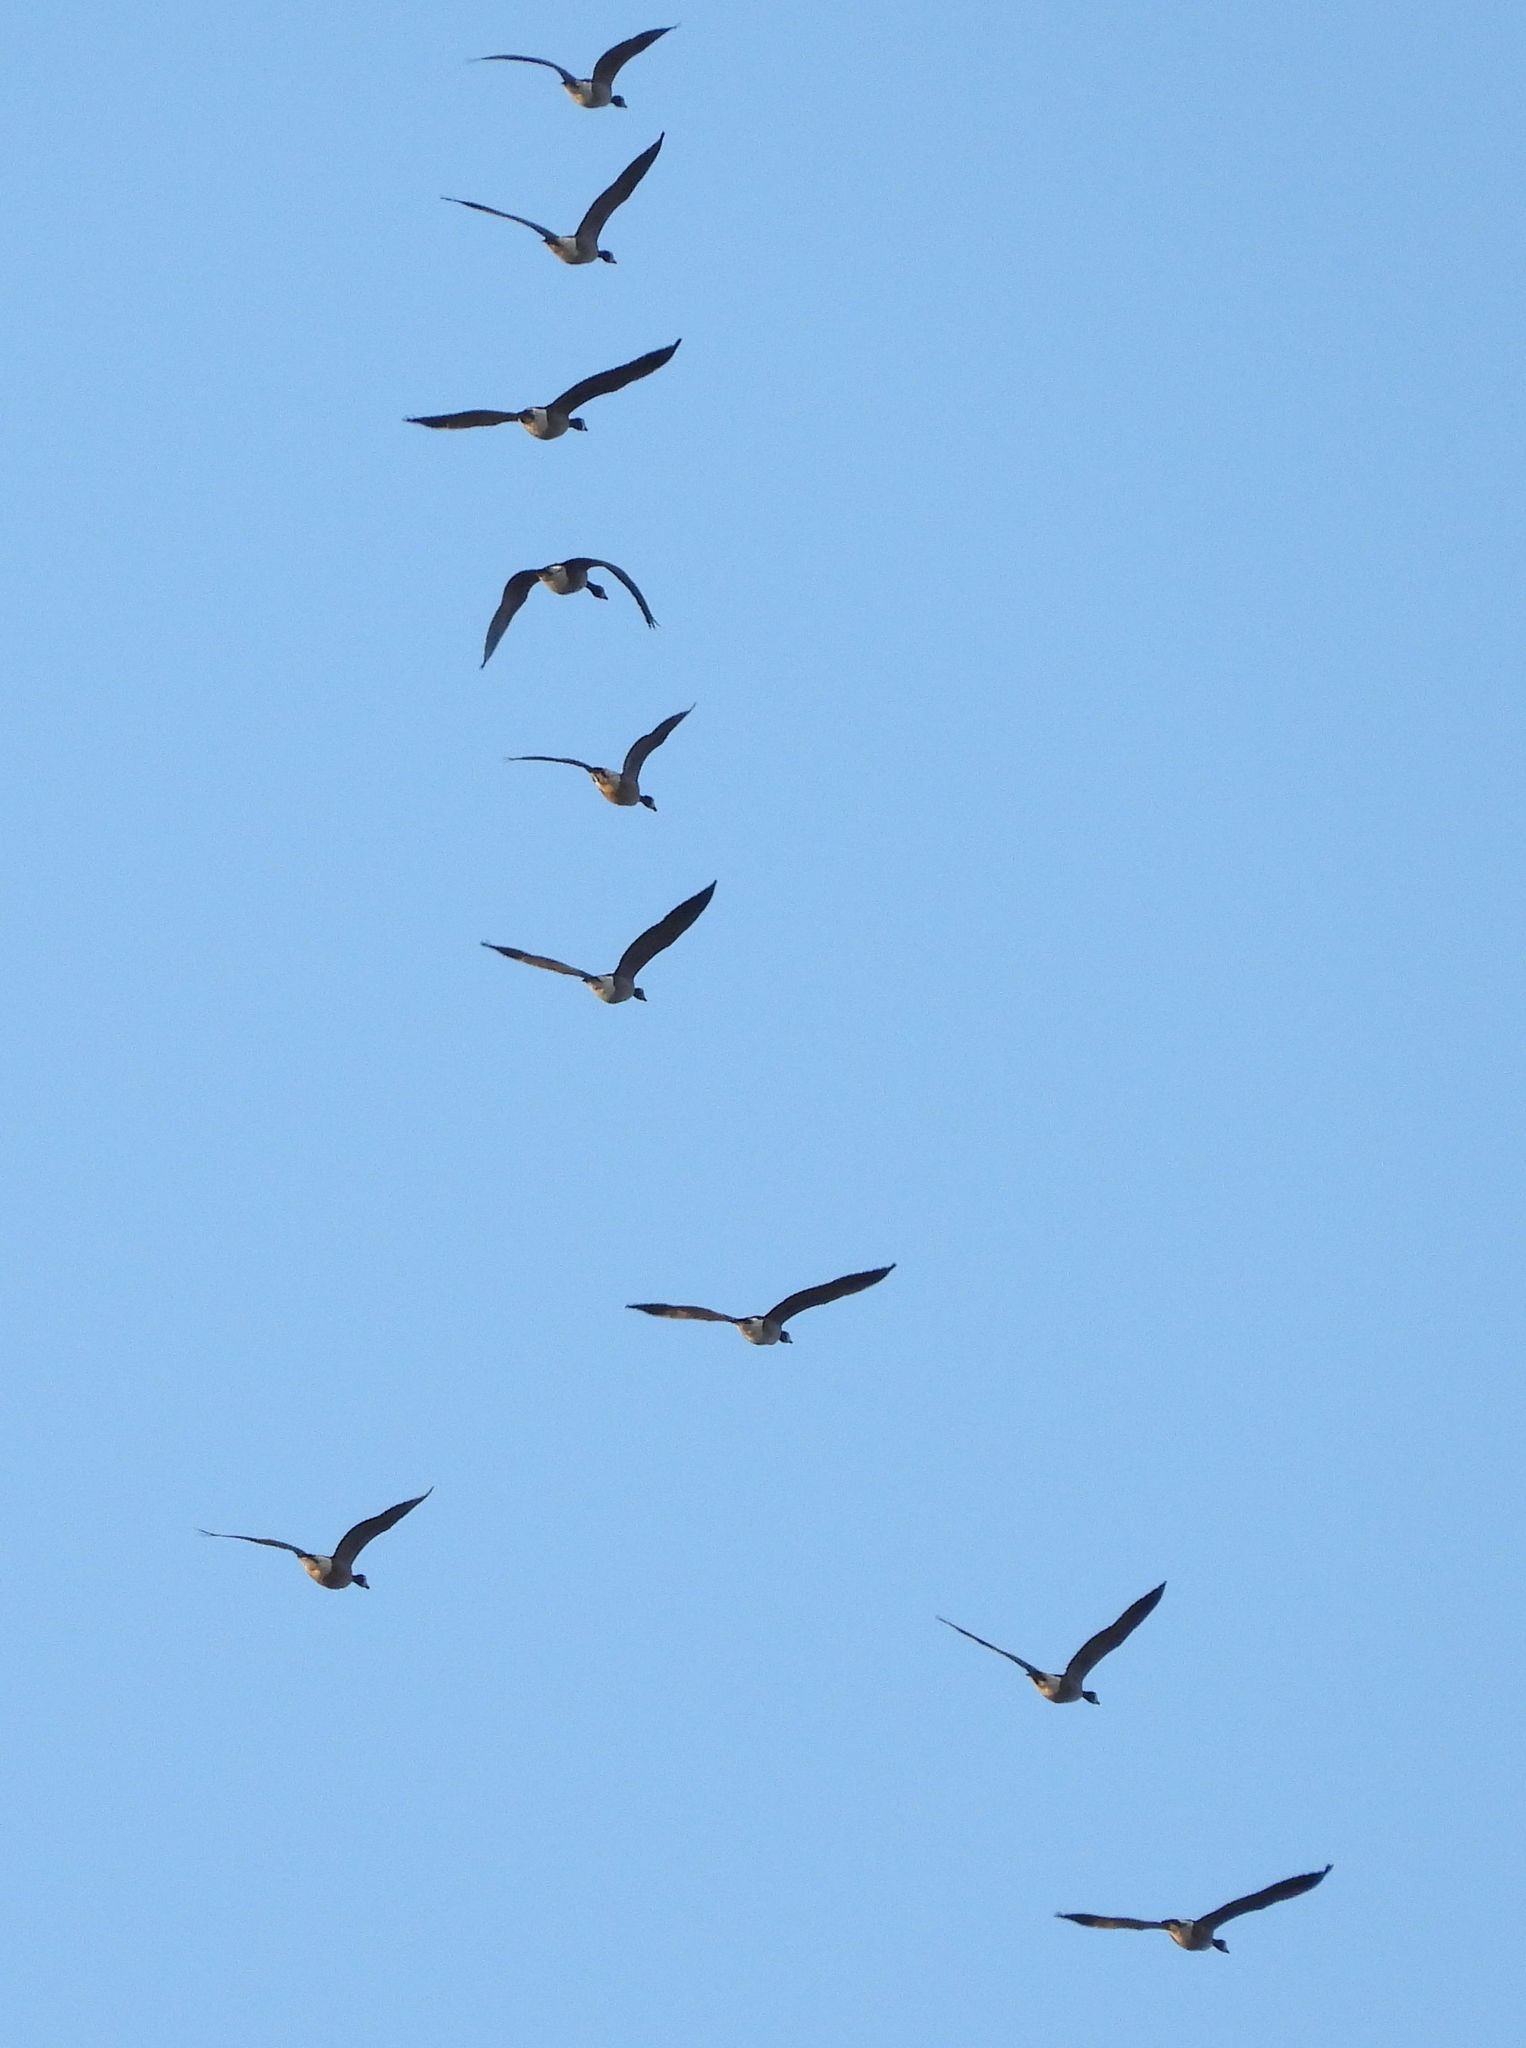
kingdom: Animalia
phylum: Chordata
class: Aves
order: Anseriformes
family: Anatidae
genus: Branta
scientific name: Branta canadensis
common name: Canada goose
